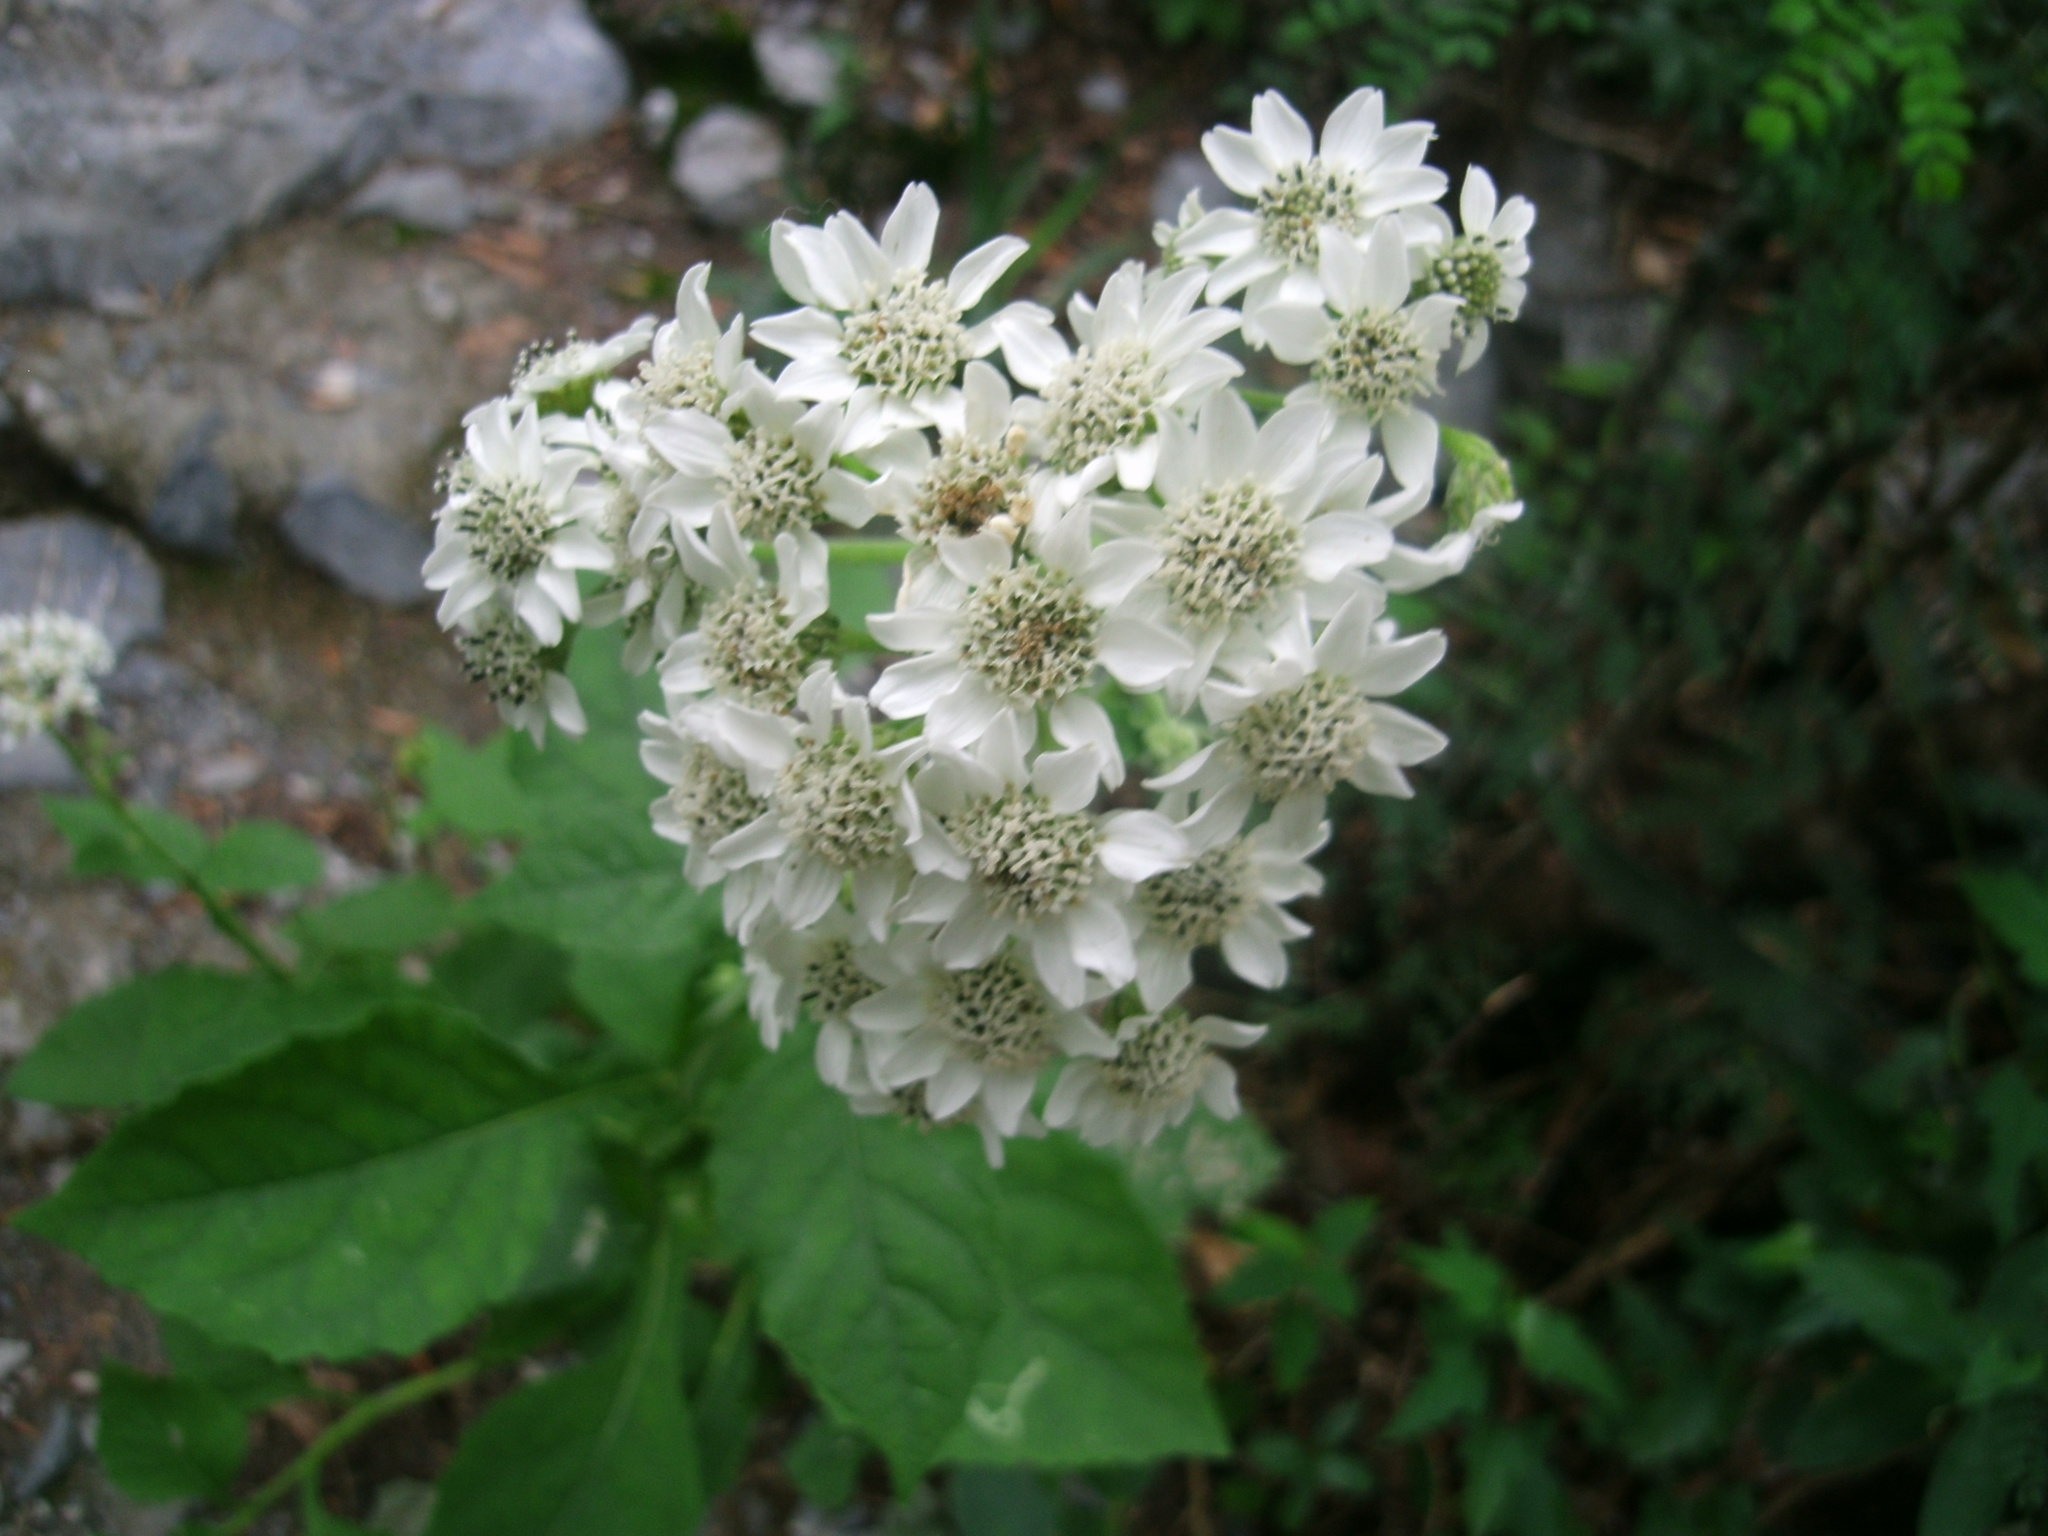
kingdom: Plantae
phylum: Tracheophyta
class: Magnoliopsida
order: Asterales
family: Asteraceae
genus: Verbesina
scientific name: Verbesina microptera
